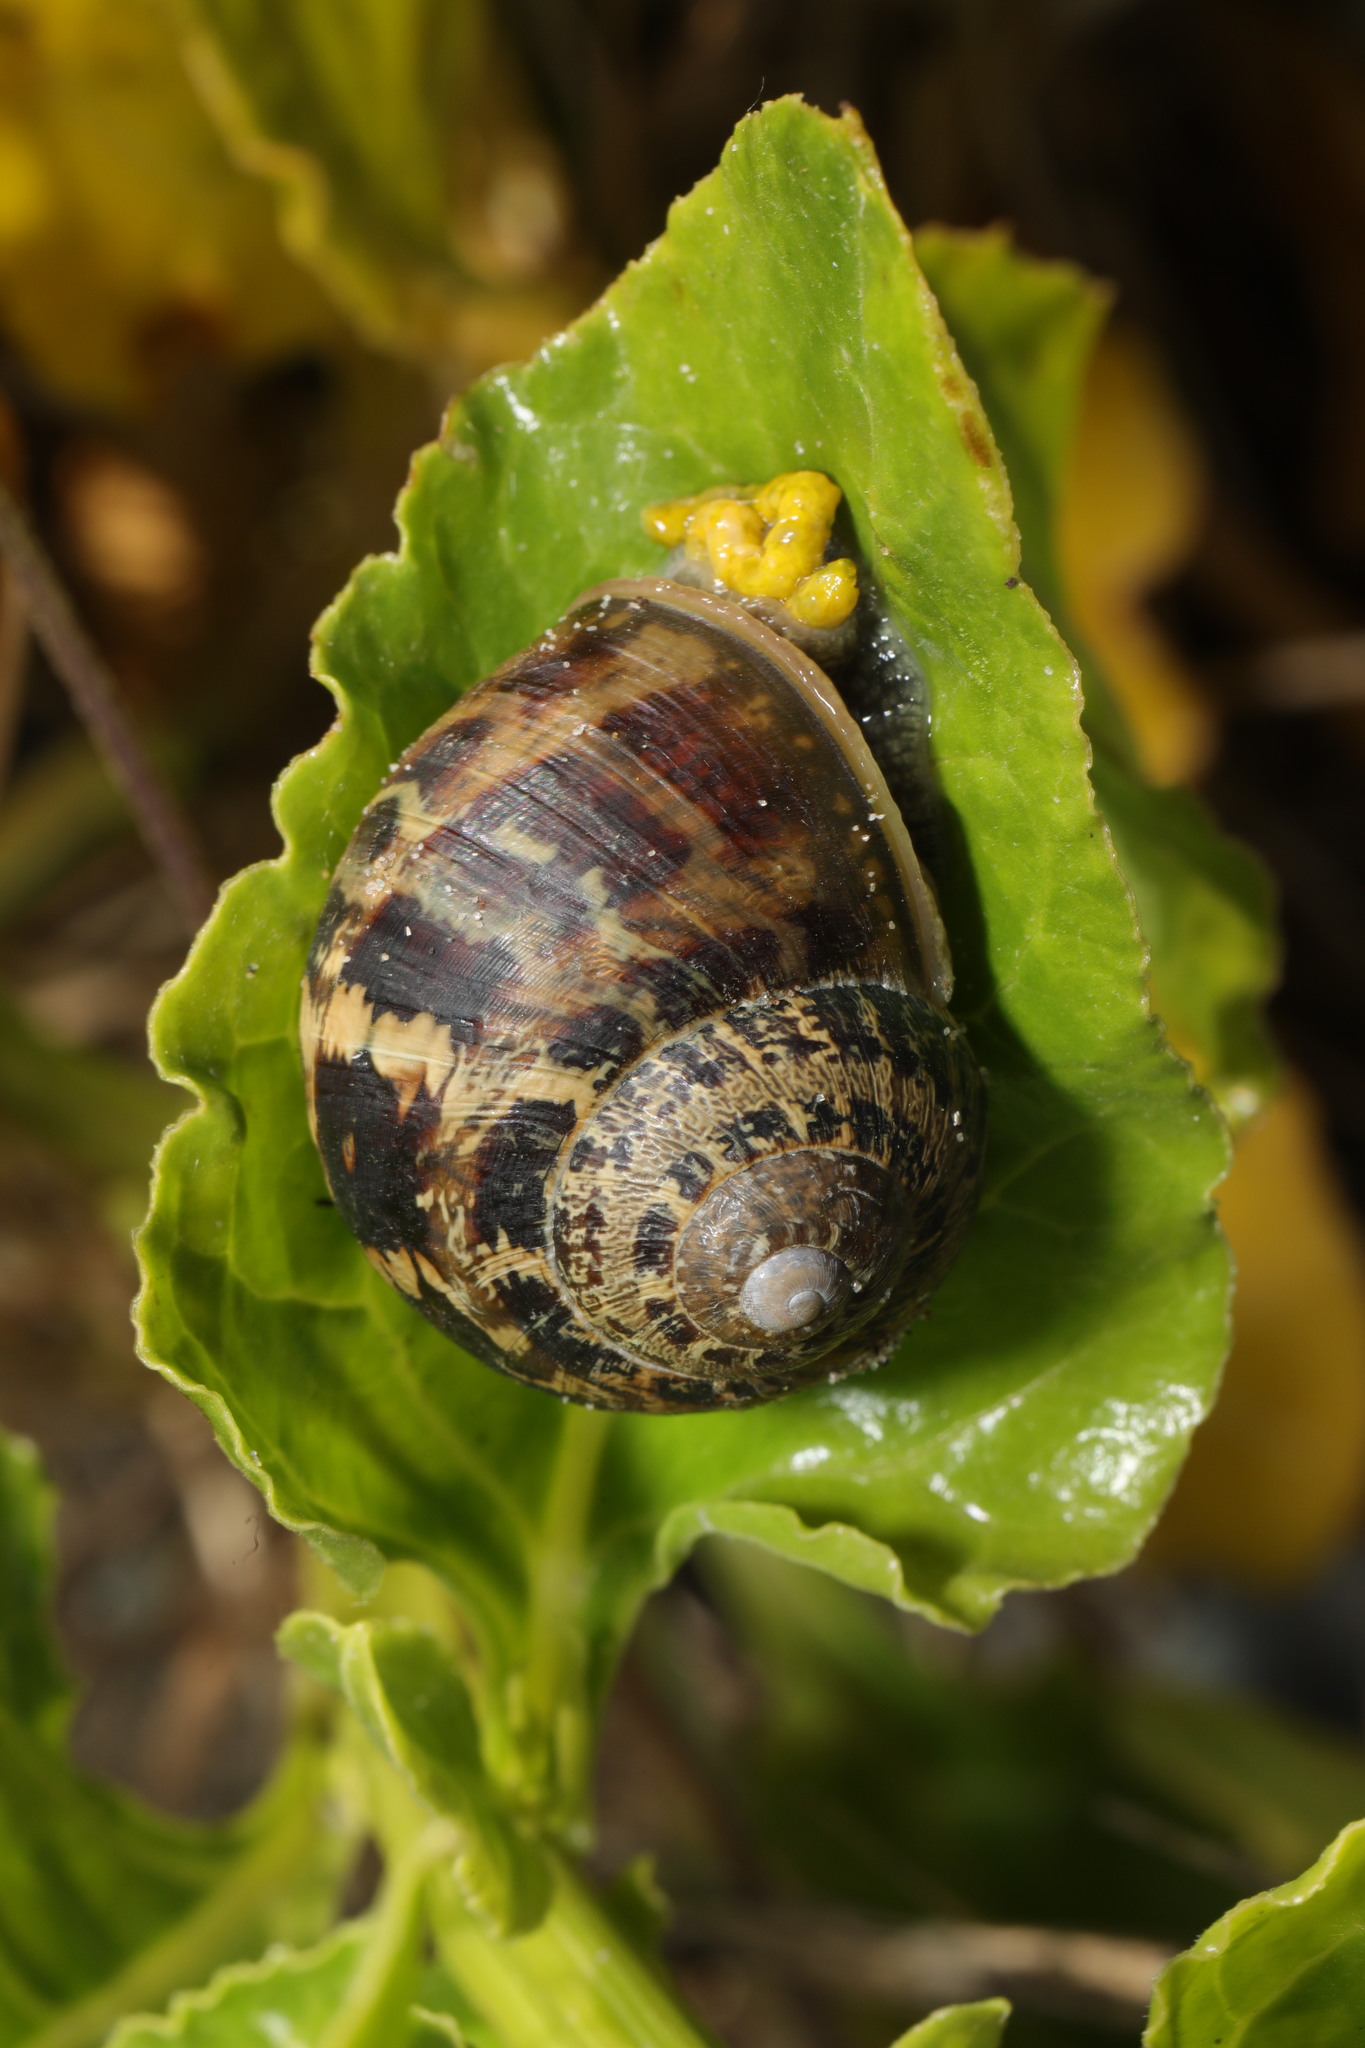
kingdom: Animalia
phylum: Mollusca
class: Gastropoda
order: Stylommatophora
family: Helicidae
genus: Cornu
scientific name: Cornu aspersum
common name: Brown garden snail
